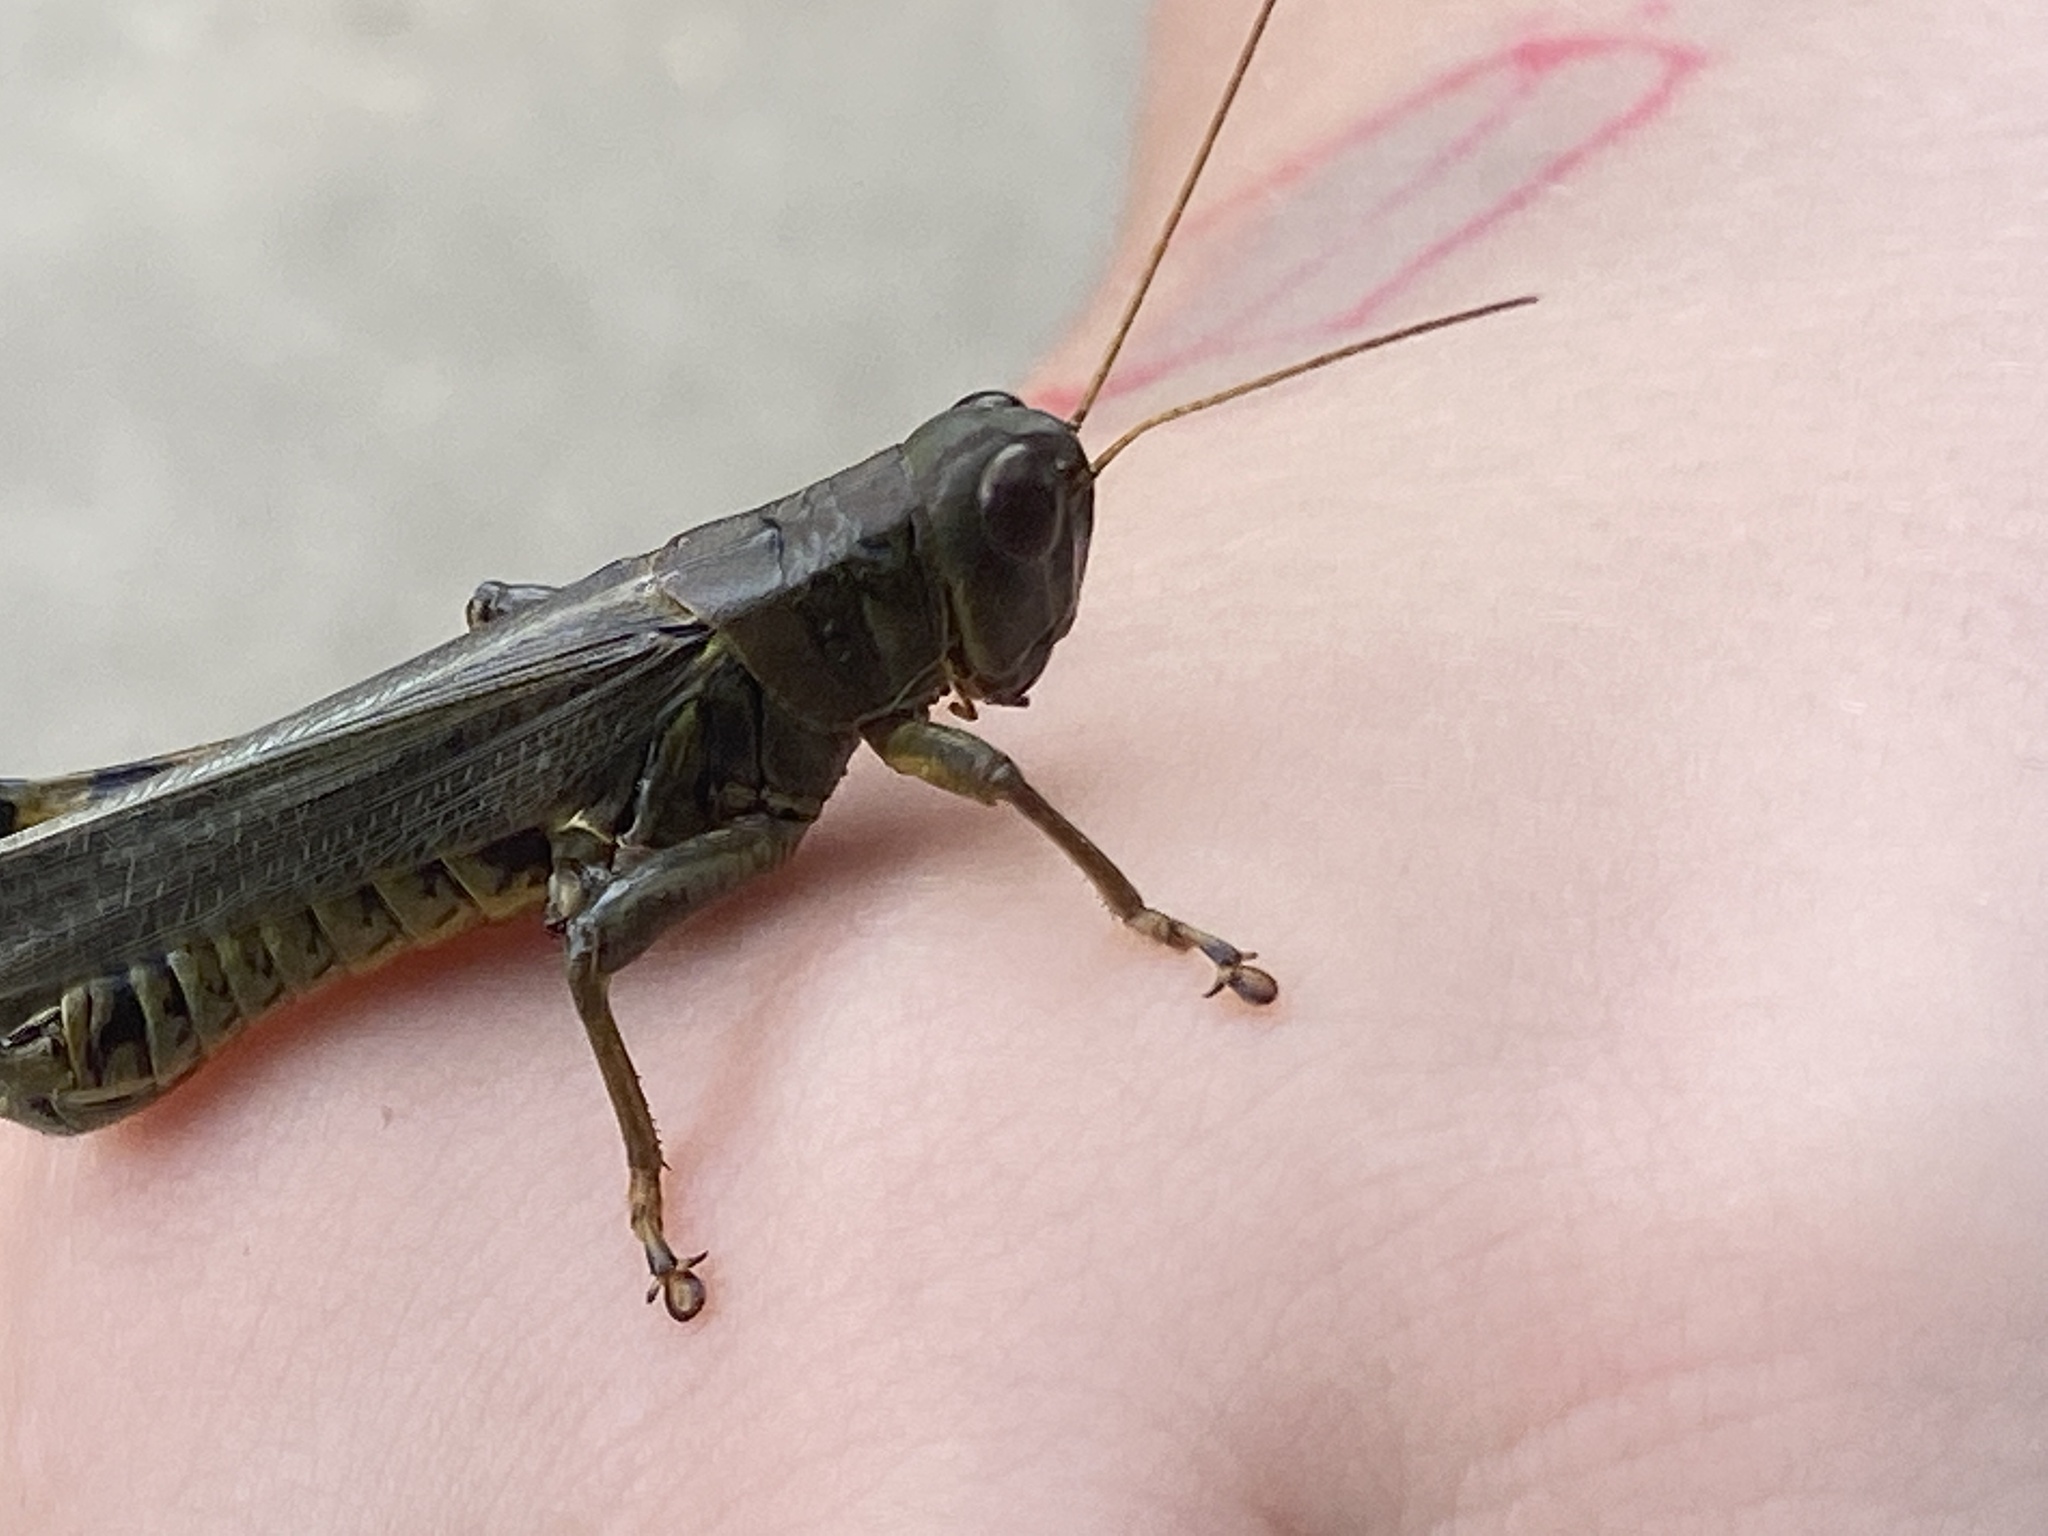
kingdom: Animalia
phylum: Arthropoda
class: Insecta
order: Orthoptera
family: Acrididae
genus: Melanoplus
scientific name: Melanoplus differentialis
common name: Differential grasshopper
